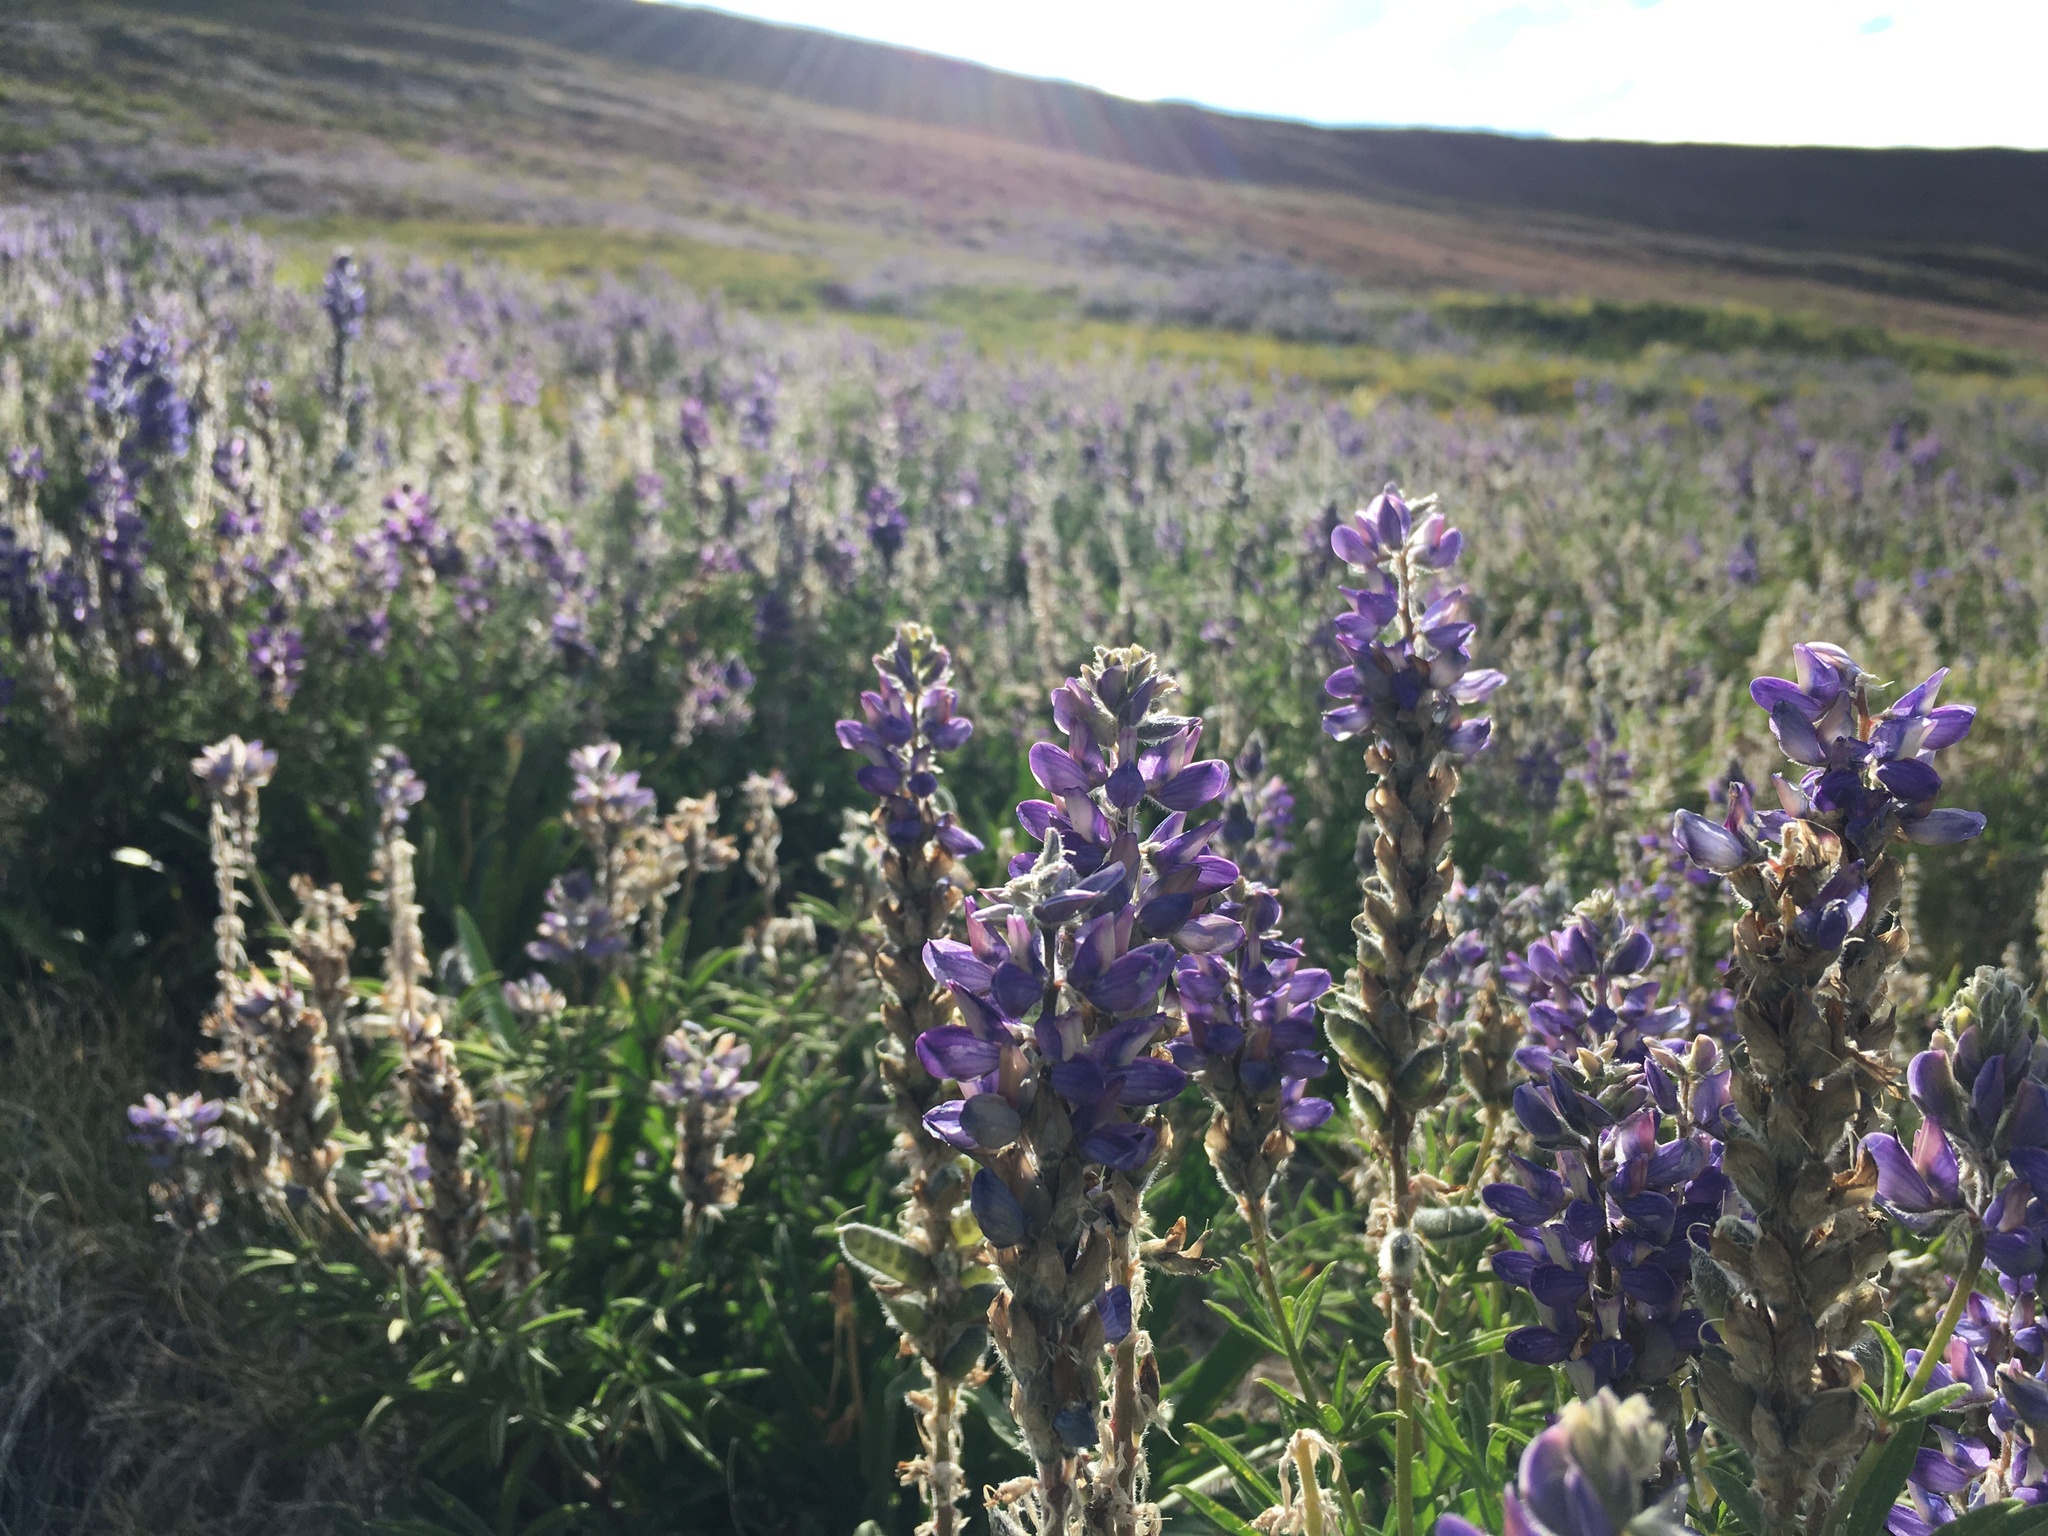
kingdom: Plantae
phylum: Tracheophyta
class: Magnoliopsida
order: Fabales
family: Fabaceae
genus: Lupinus
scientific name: Lupinus confertus
